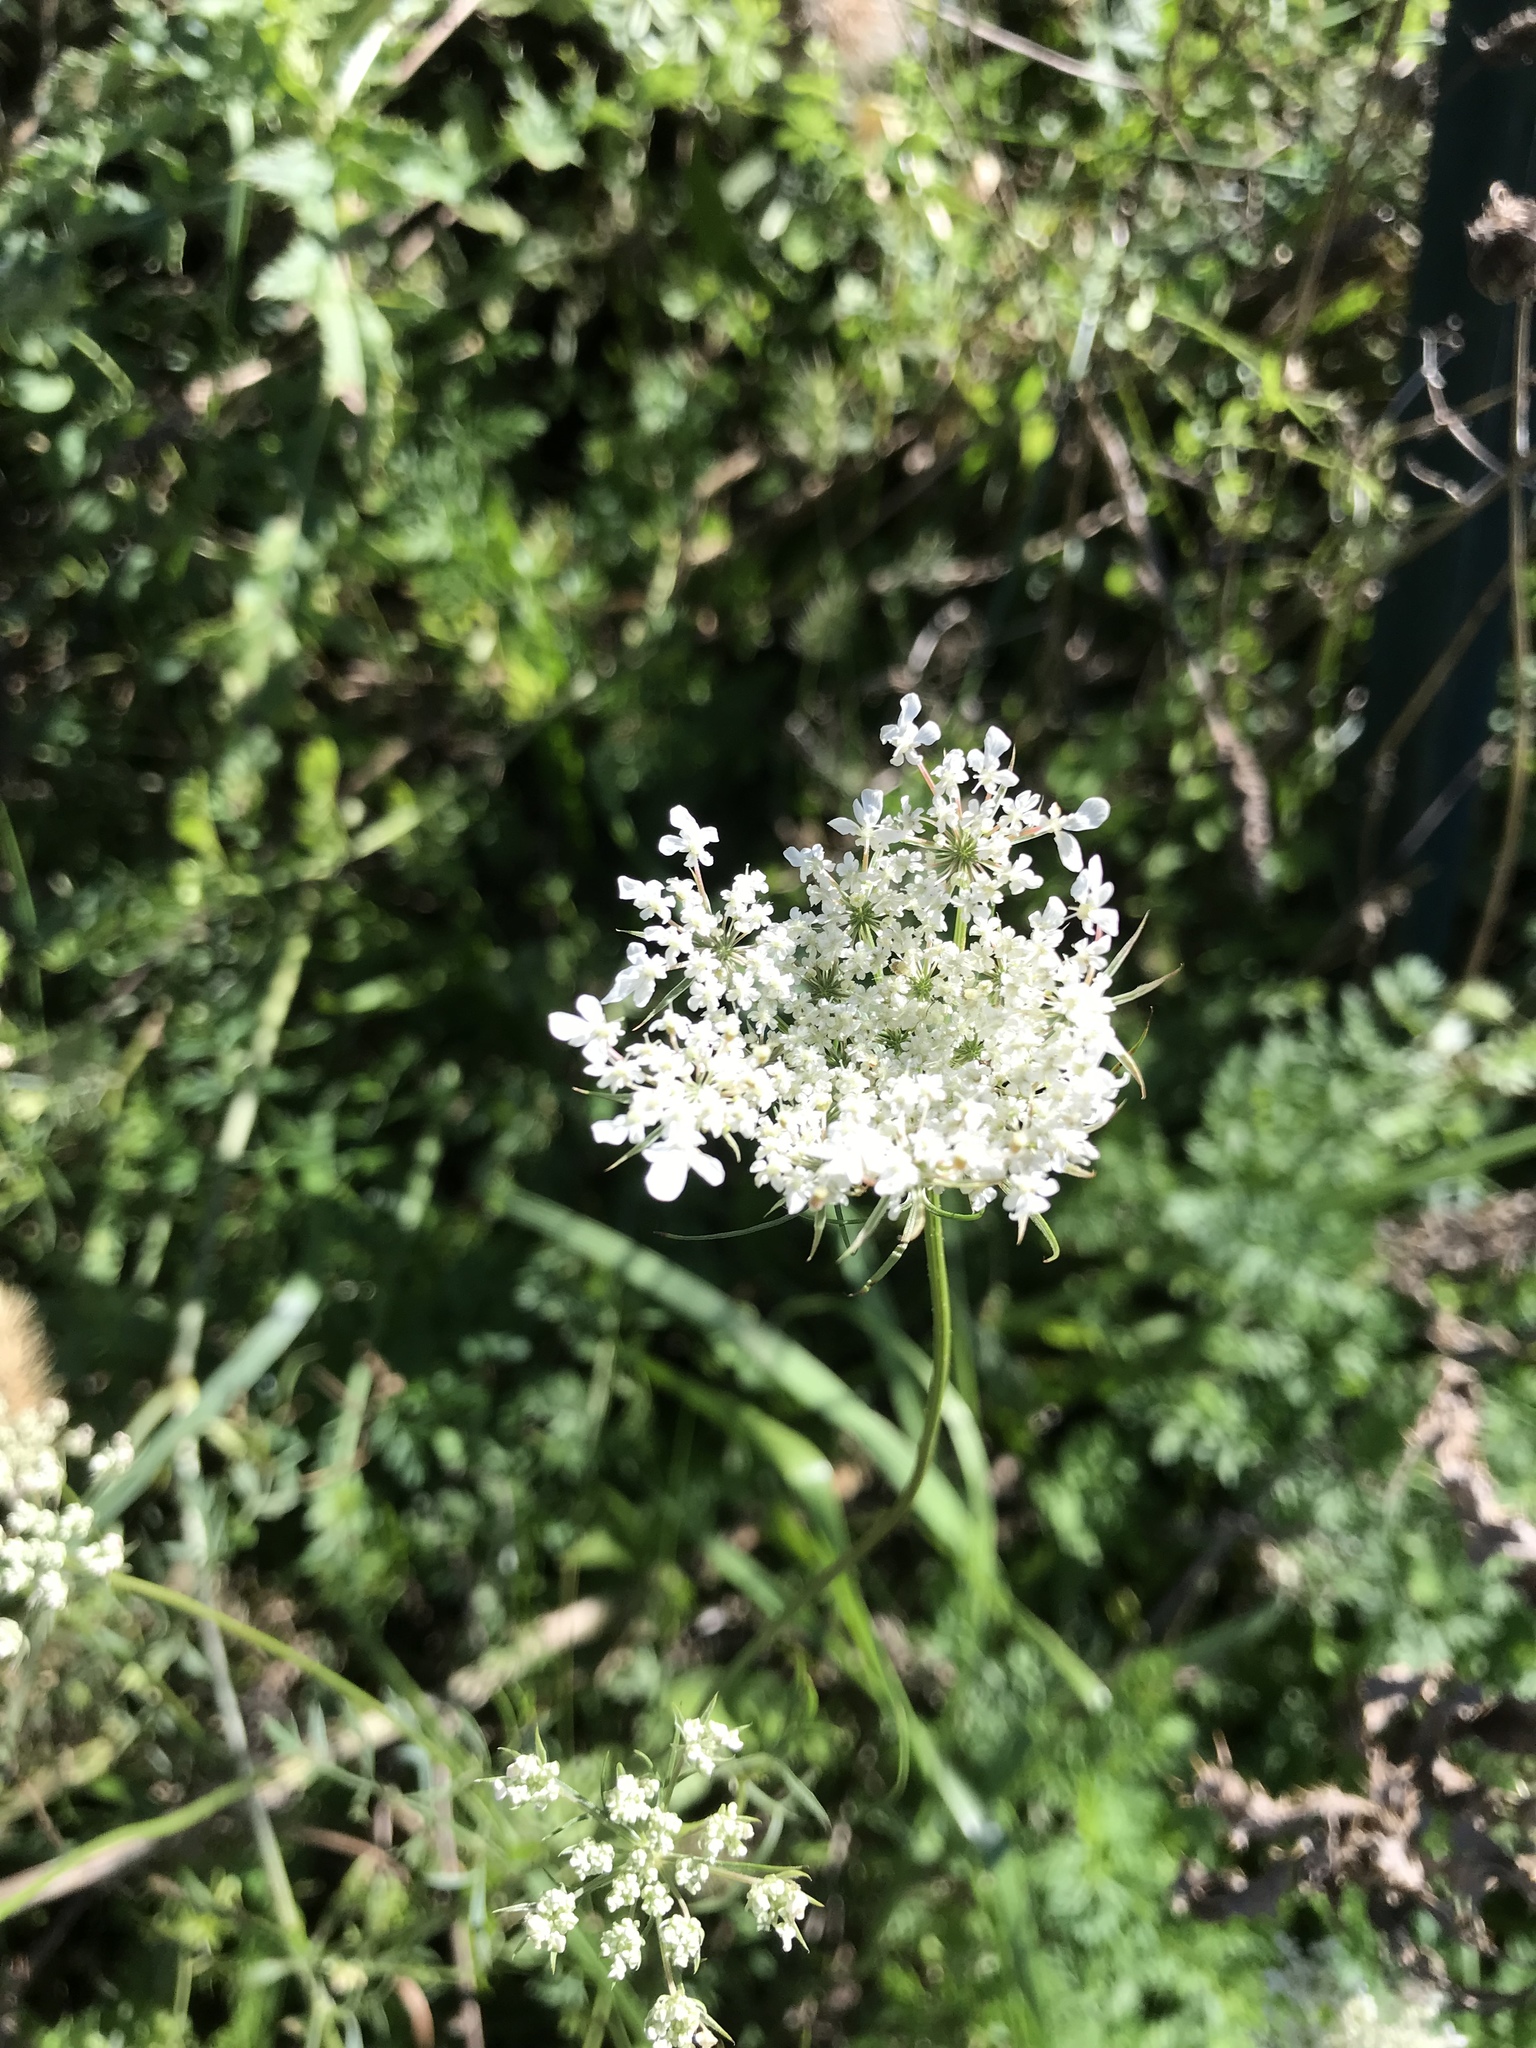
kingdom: Plantae
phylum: Tracheophyta
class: Magnoliopsida
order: Apiales
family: Apiaceae
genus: Daucus
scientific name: Daucus carota
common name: Wild carrot
